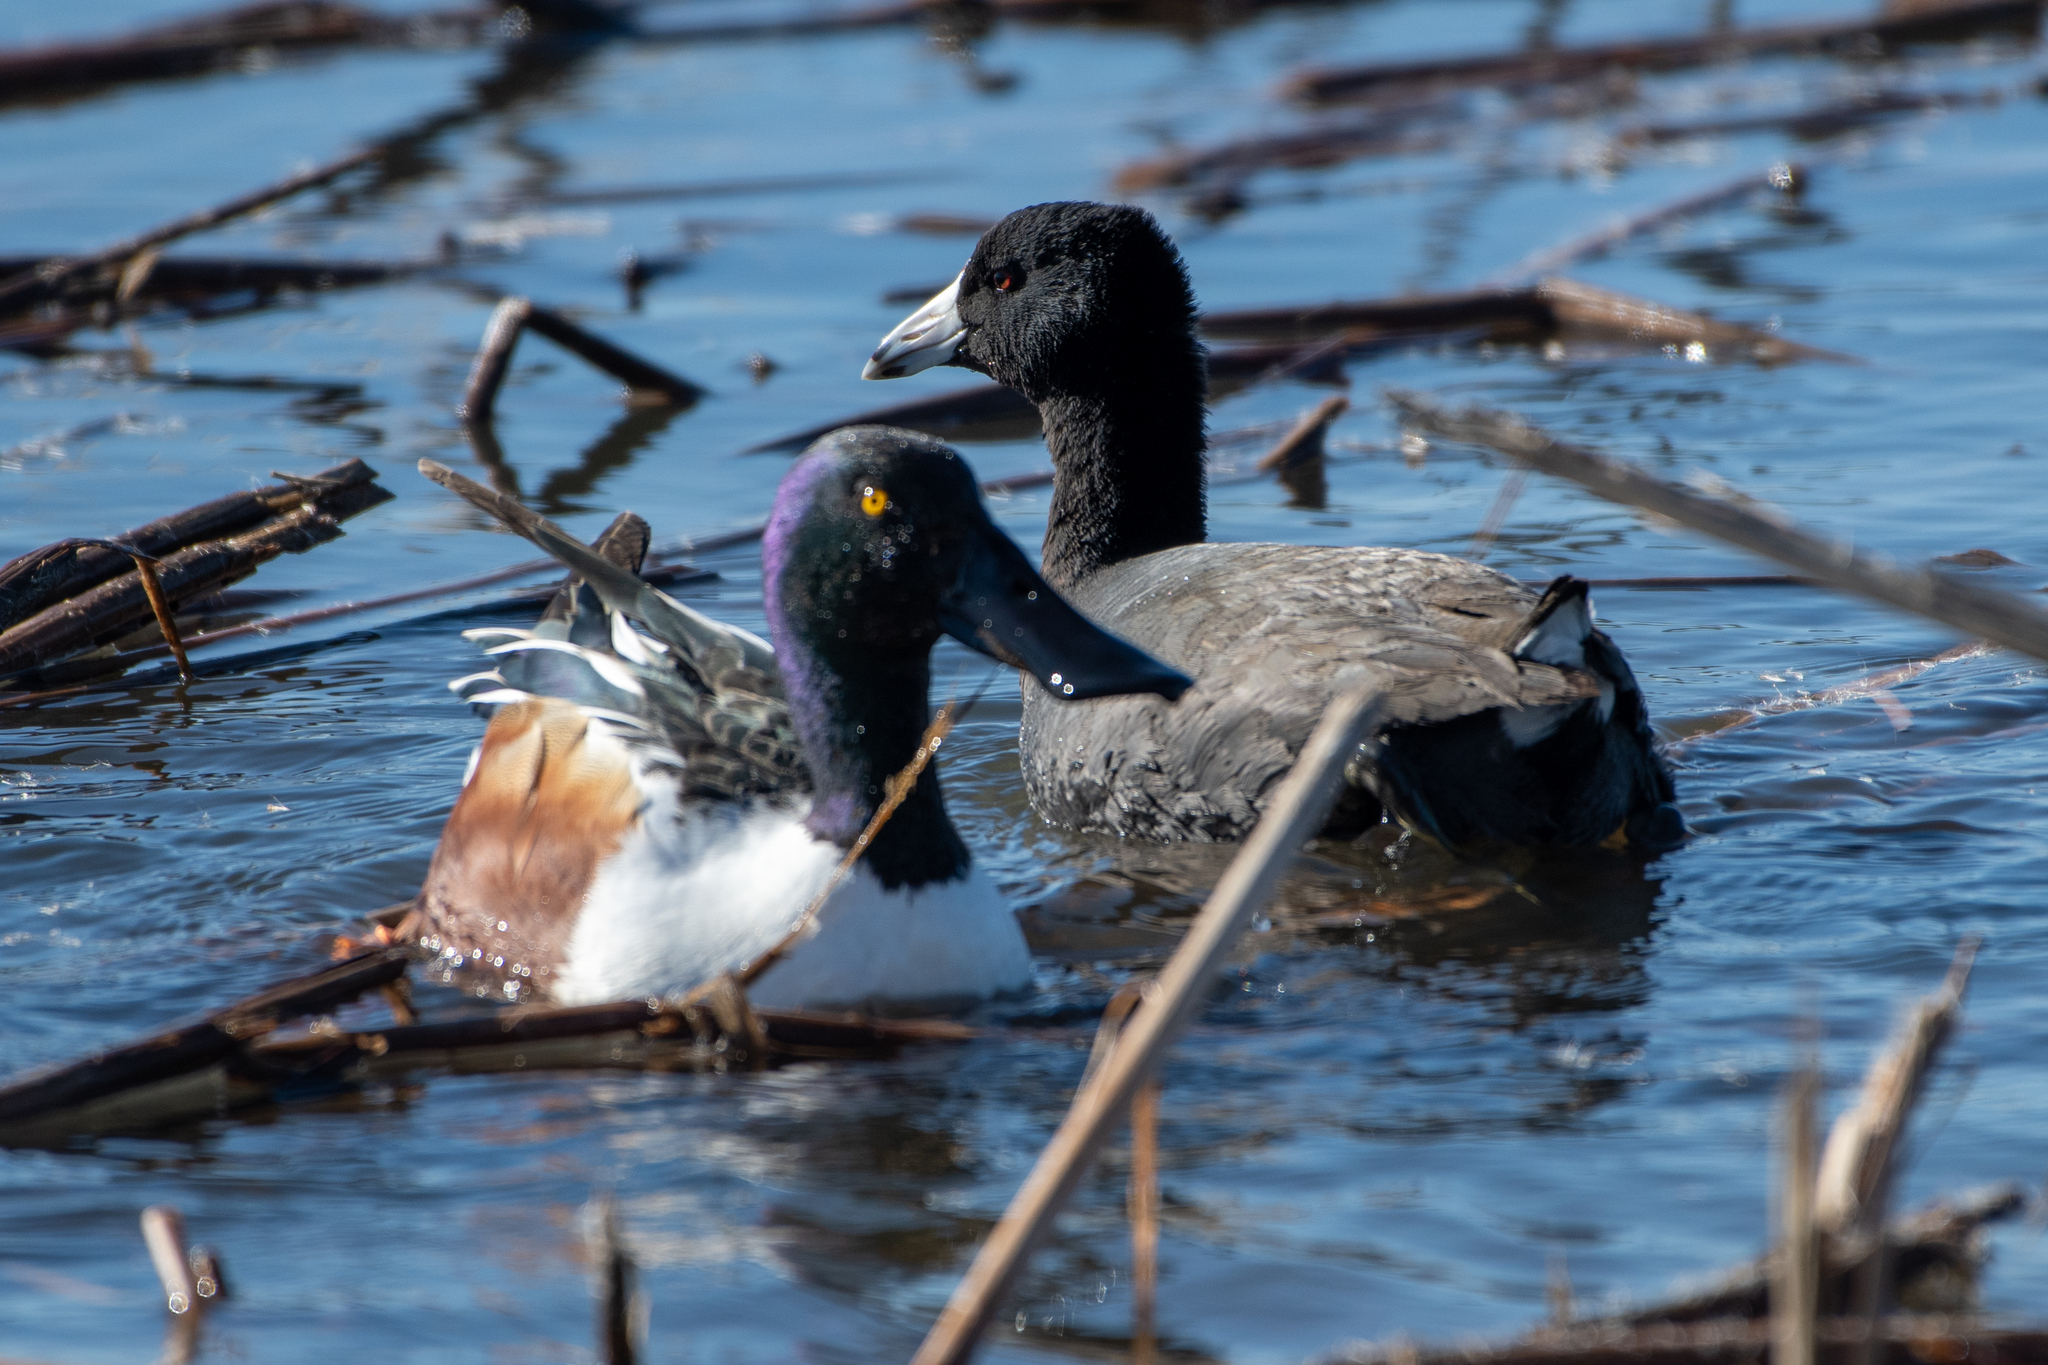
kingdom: Animalia
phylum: Chordata
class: Aves
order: Gruiformes
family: Rallidae
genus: Fulica
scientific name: Fulica americana
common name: American coot
